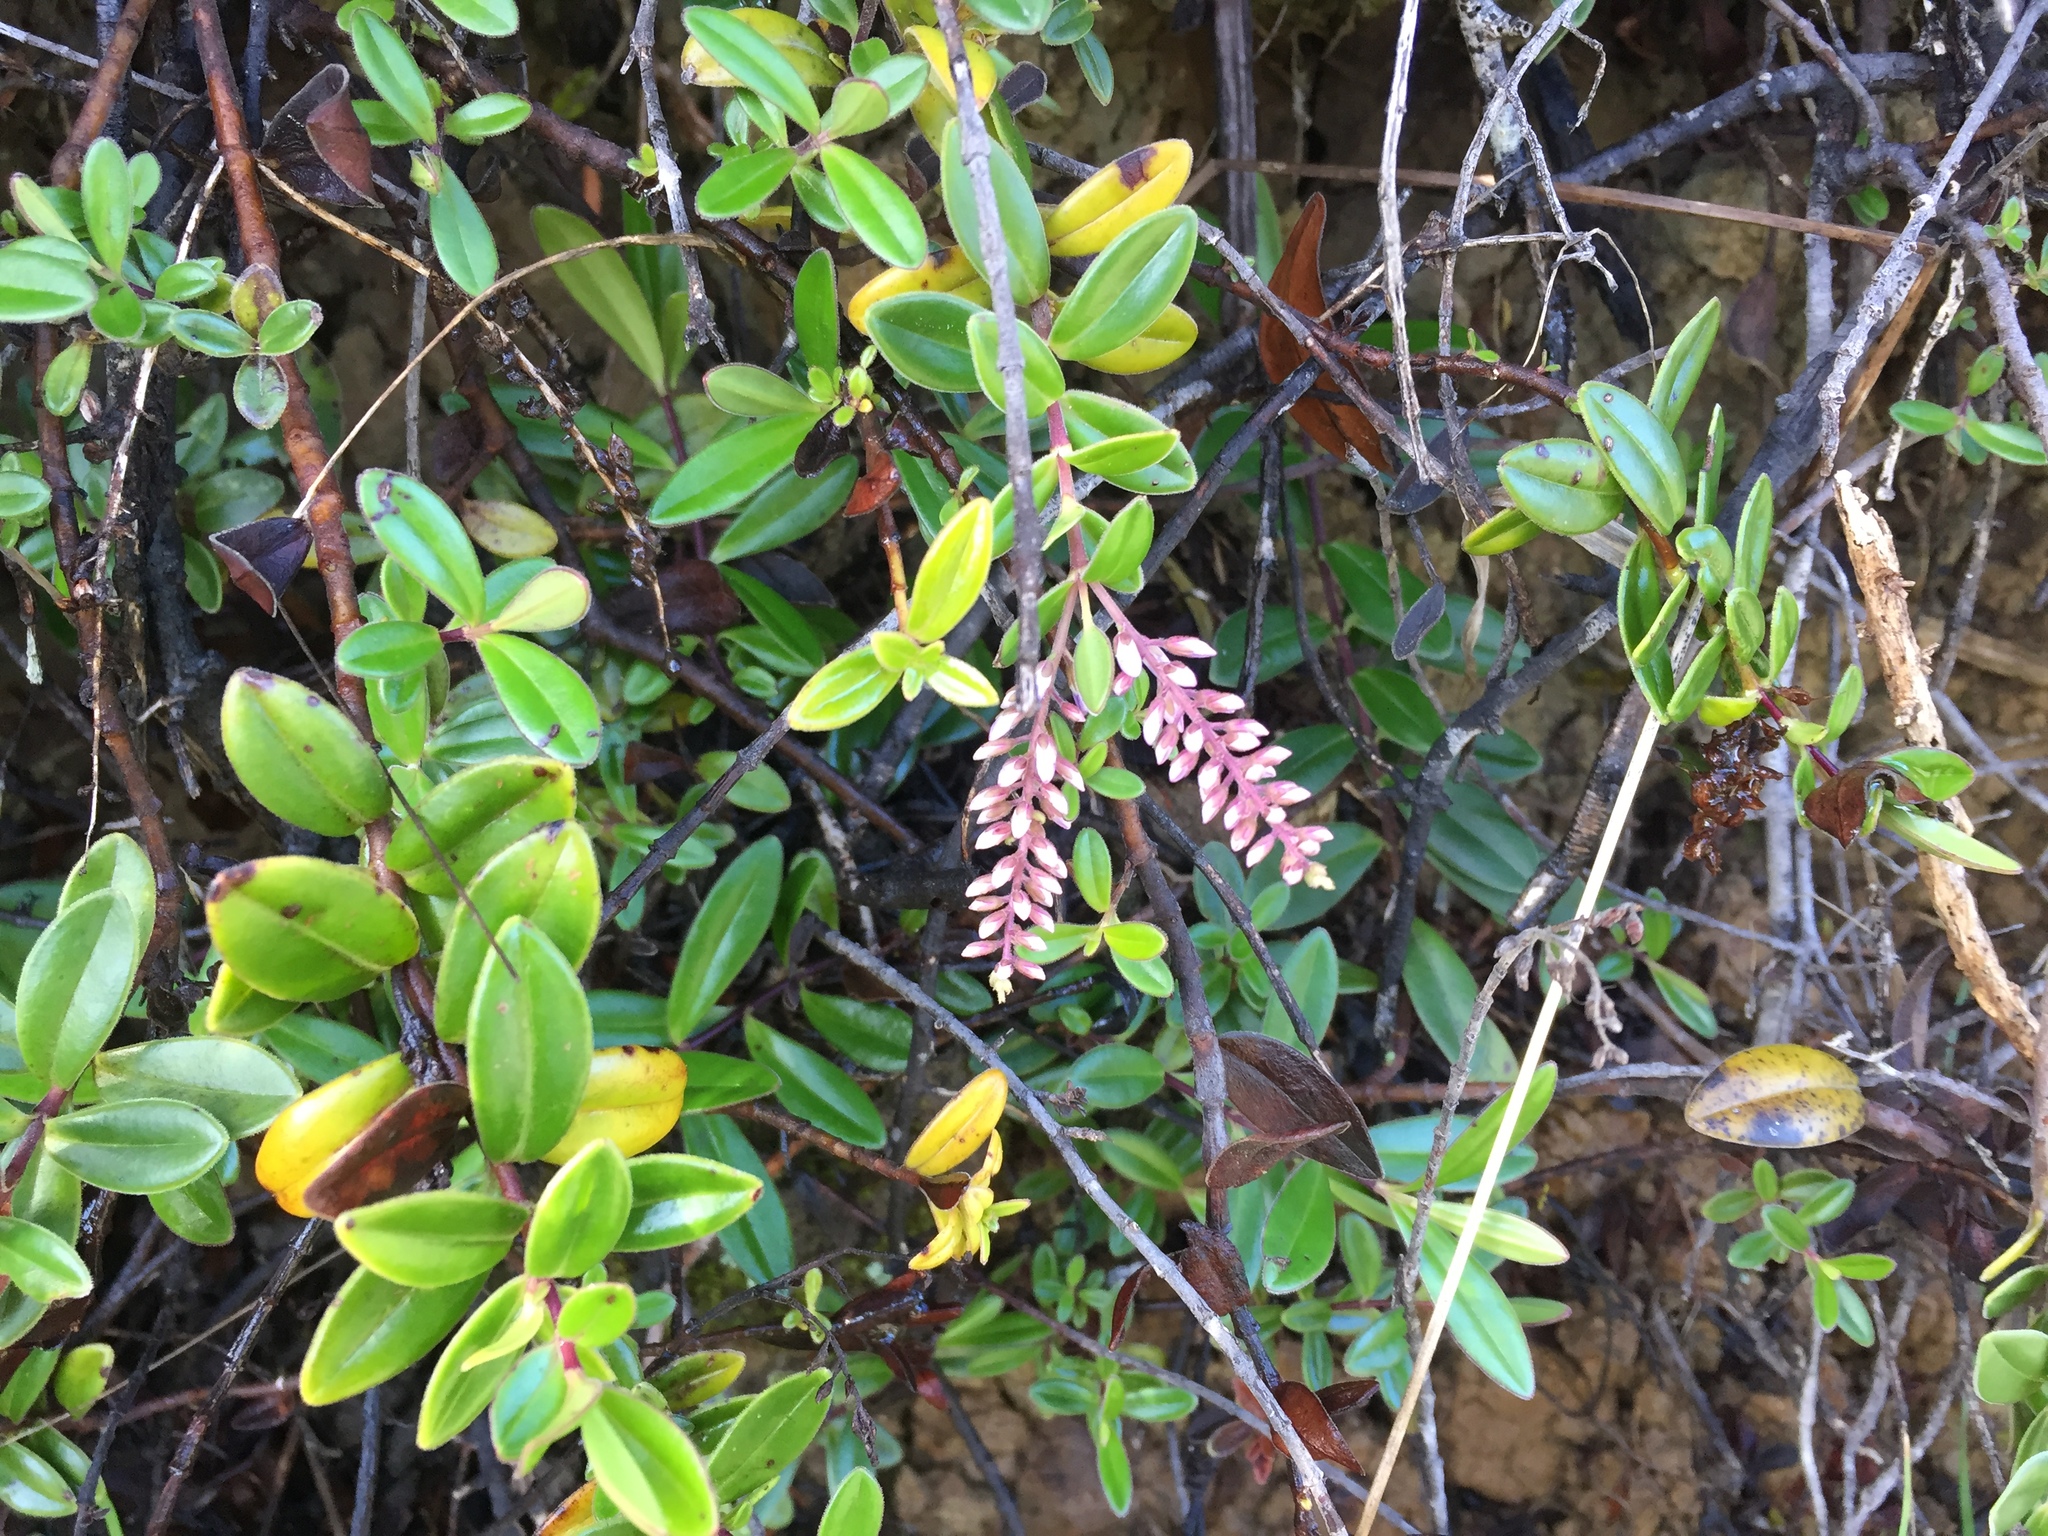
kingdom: Plantae
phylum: Tracheophyta
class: Magnoliopsida
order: Lamiales
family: Plantaginaceae
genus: Veronica
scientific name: Veronica obtusata
